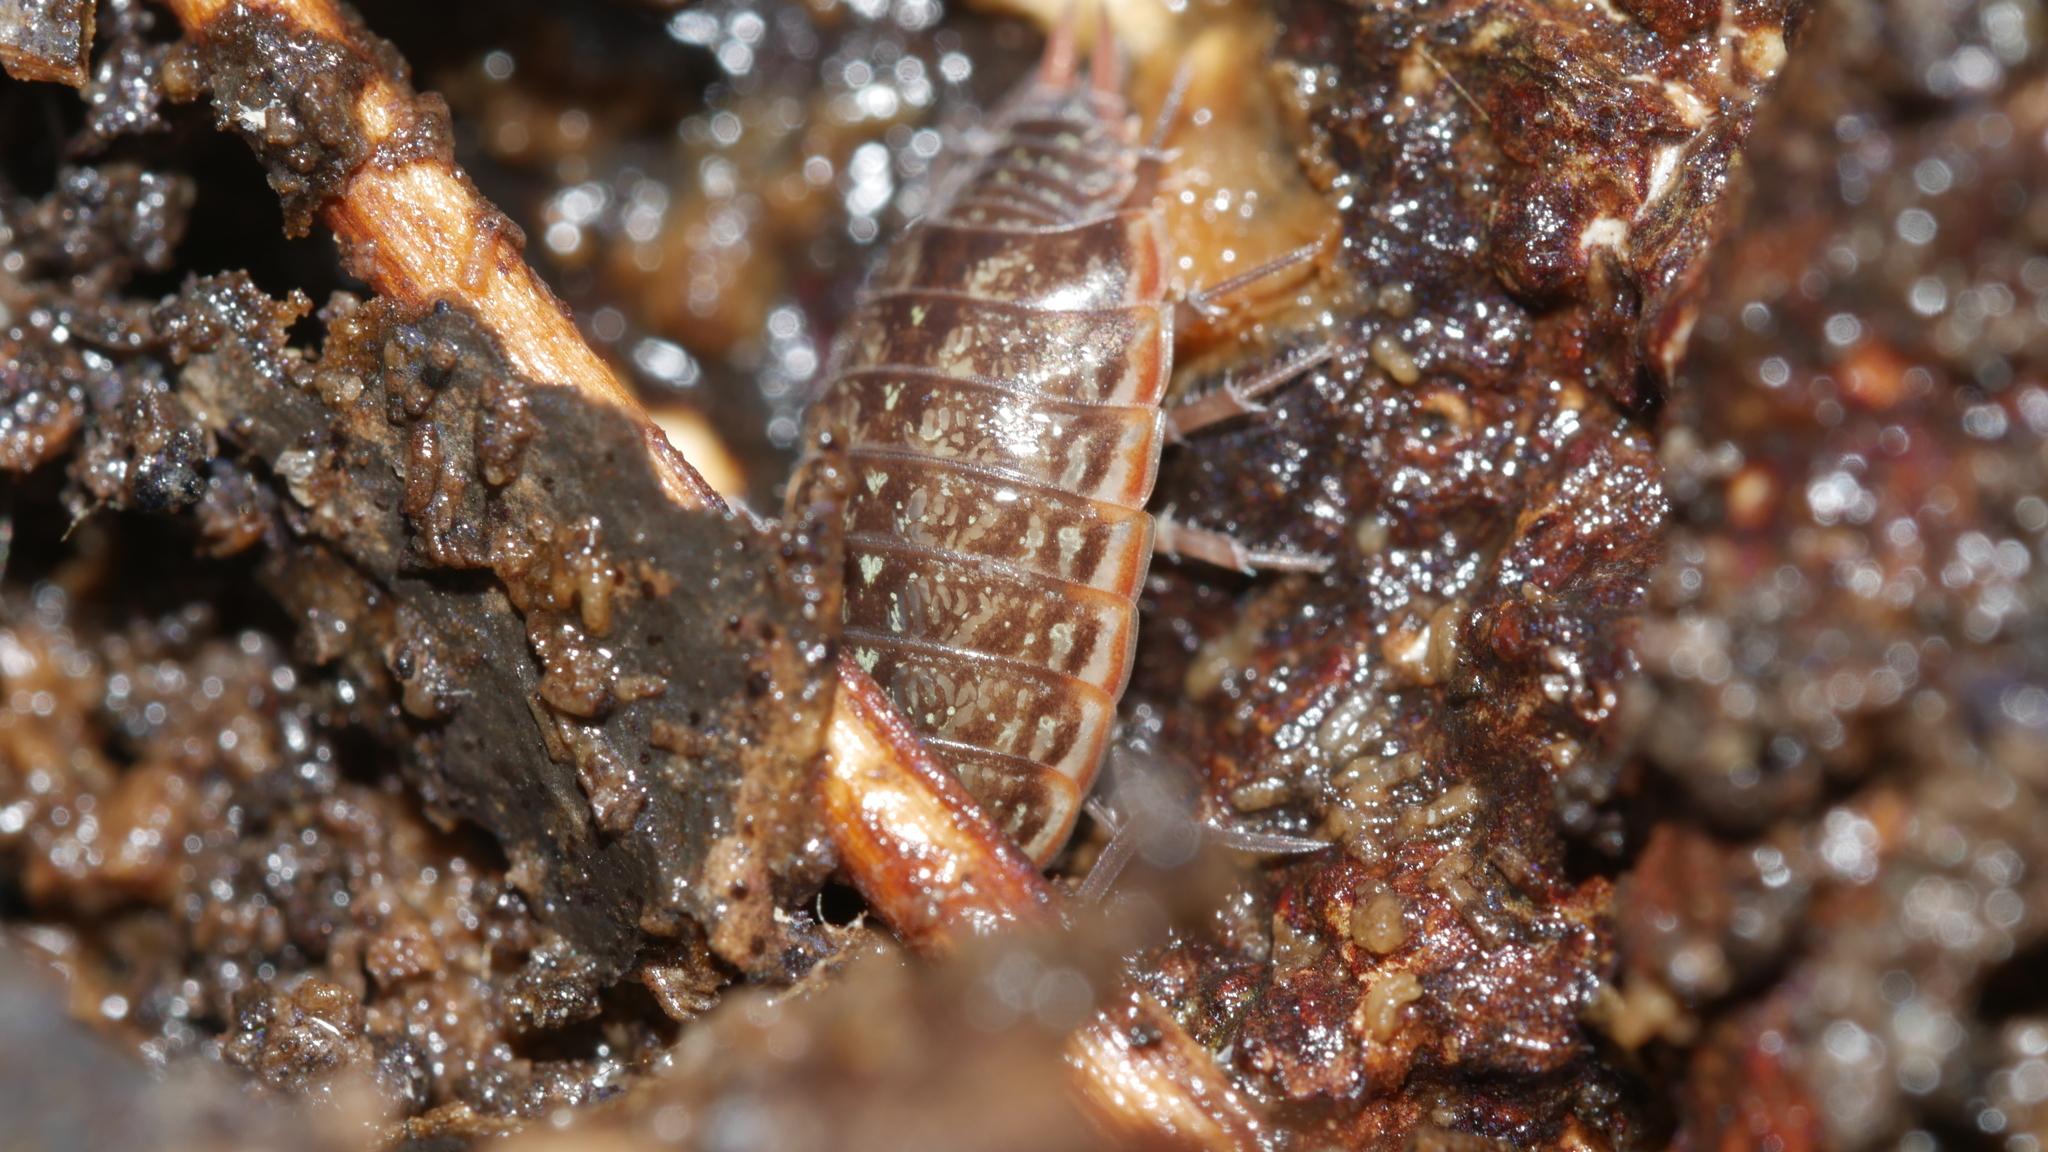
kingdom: Animalia
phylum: Arthropoda
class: Malacostraca
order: Isopoda
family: Philosciidae
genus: Philoscia
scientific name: Philoscia muscorum
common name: Common striped woodlouse
